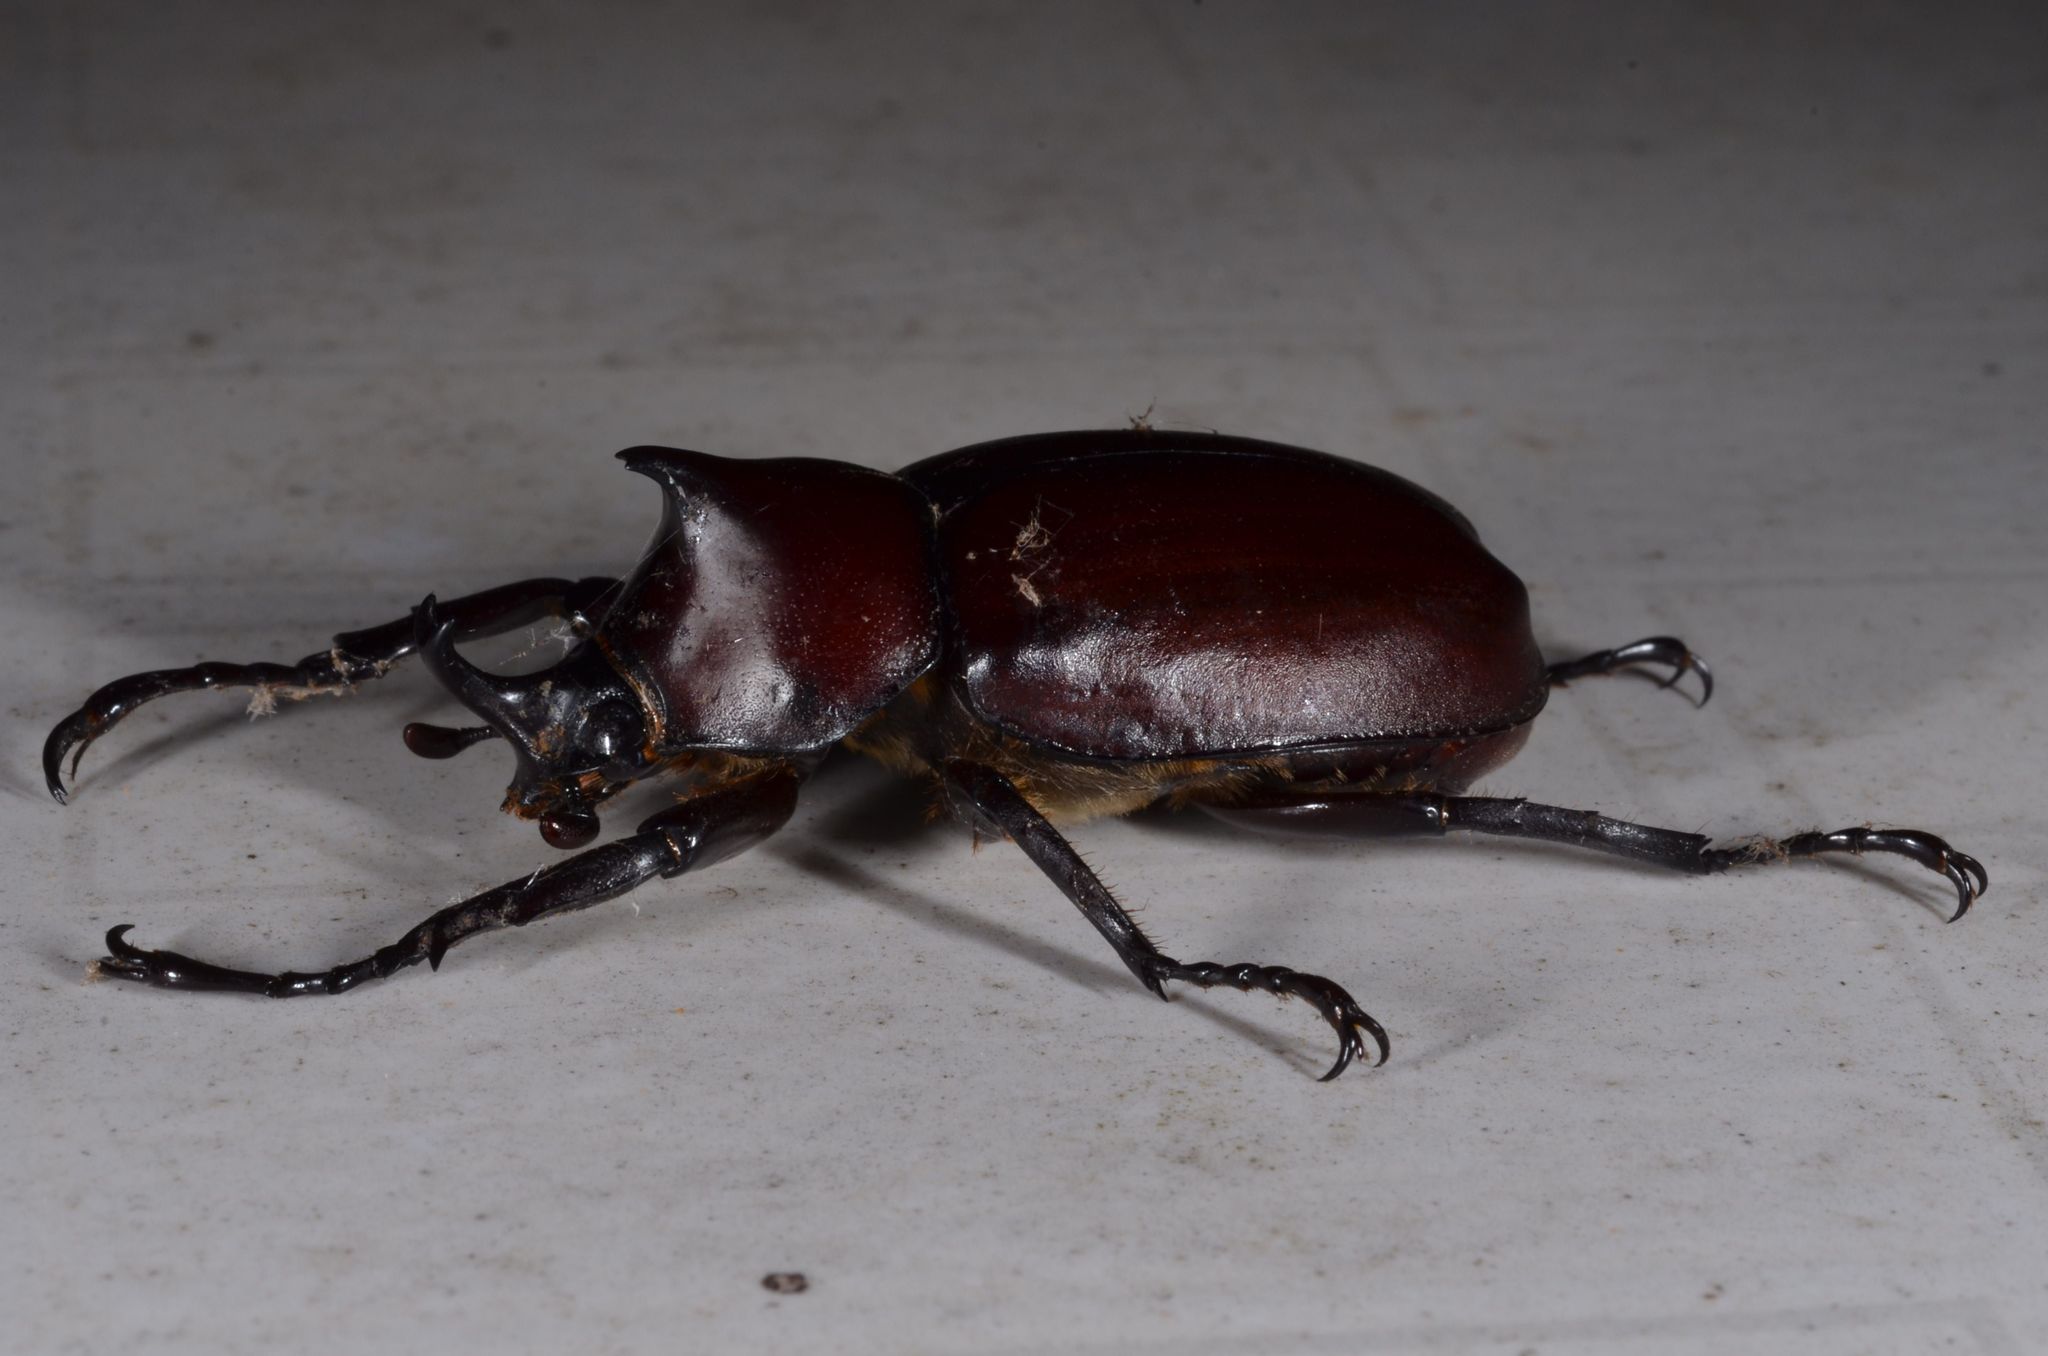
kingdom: Animalia
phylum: Arthropoda
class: Insecta
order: Coleoptera
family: Scarabaeidae
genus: Xylotrupes
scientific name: Xylotrupes socrates
